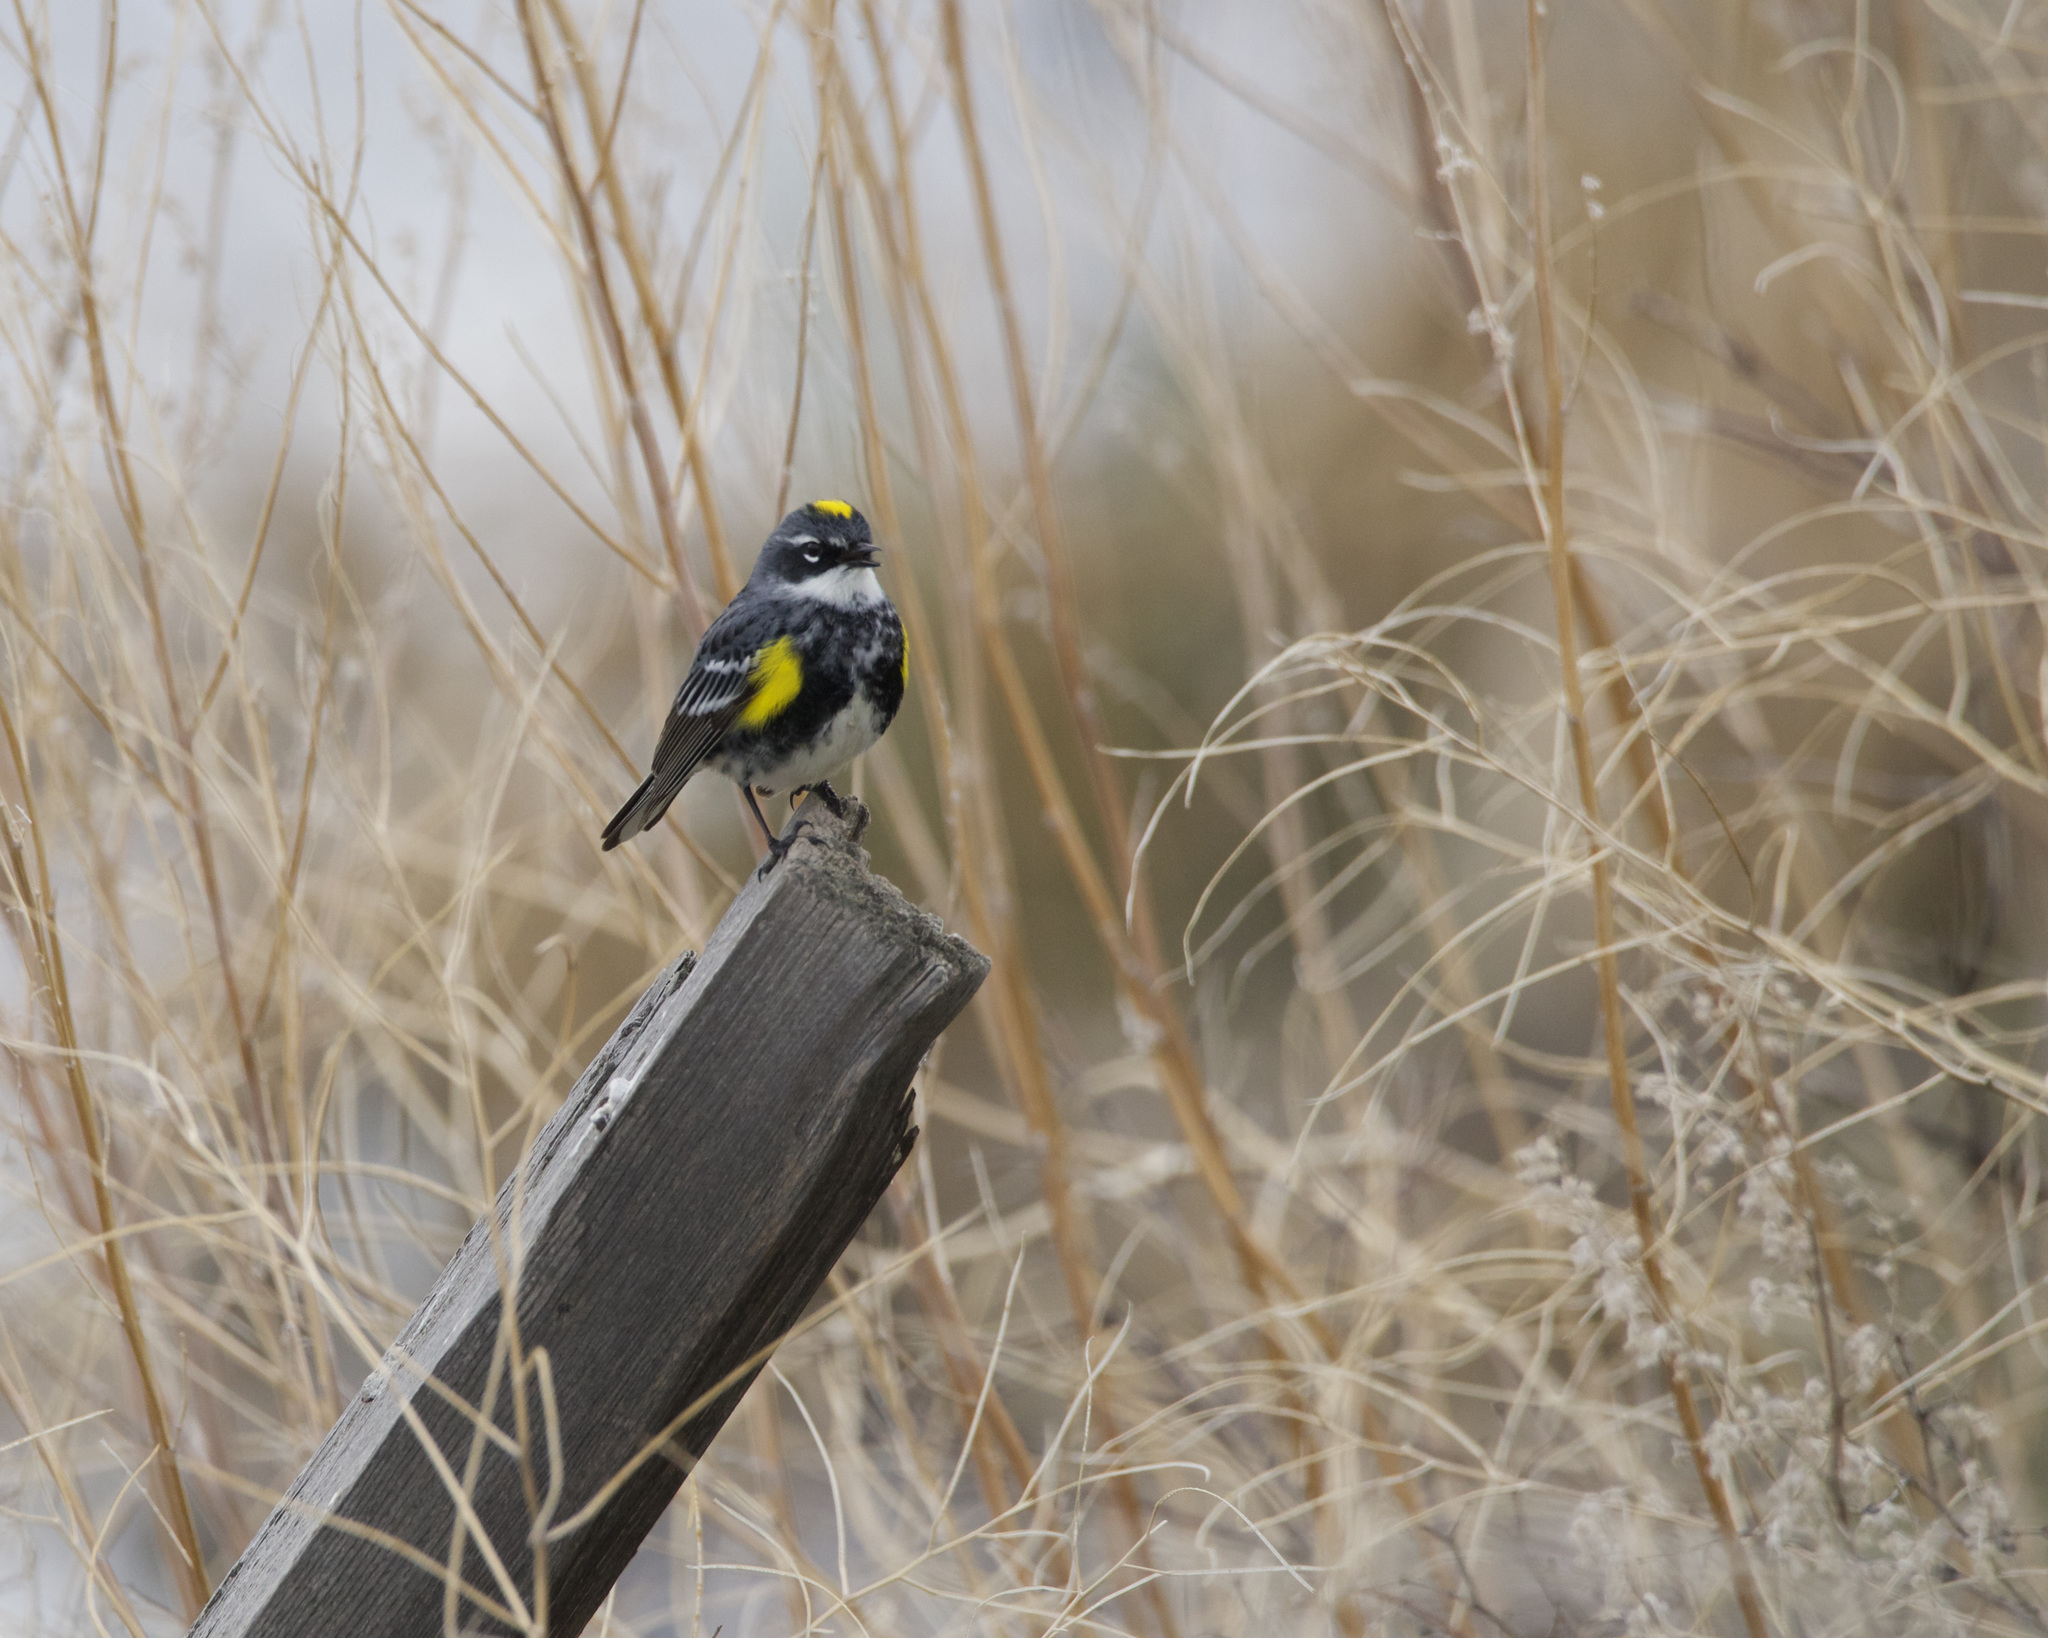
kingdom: Animalia
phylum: Chordata
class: Aves
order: Passeriformes
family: Parulidae
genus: Setophaga
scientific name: Setophaga coronata
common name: Myrtle warbler
